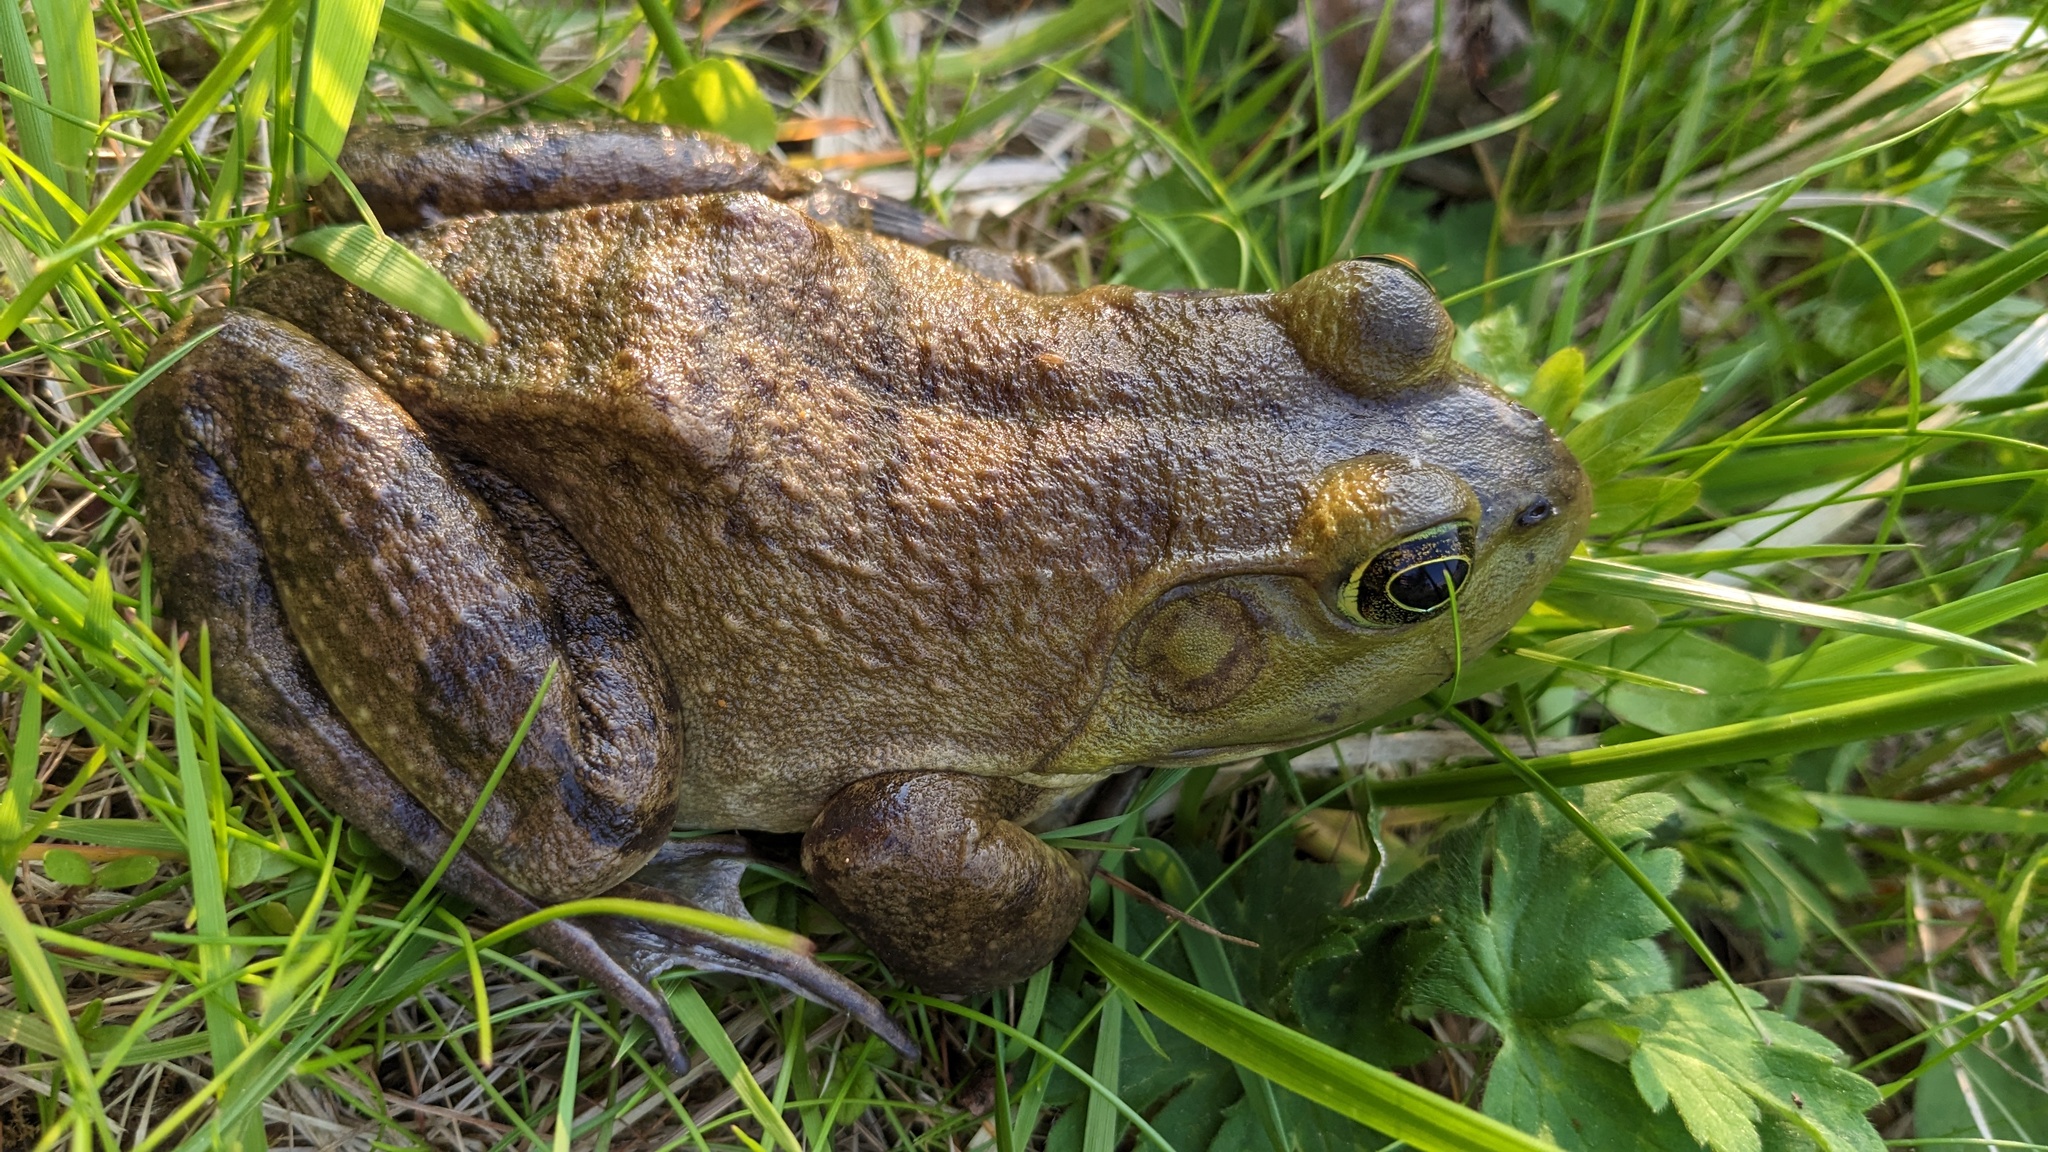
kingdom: Animalia
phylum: Chordata
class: Amphibia
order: Anura
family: Ranidae
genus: Lithobates
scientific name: Lithobates catesbeianus
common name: American bullfrog
